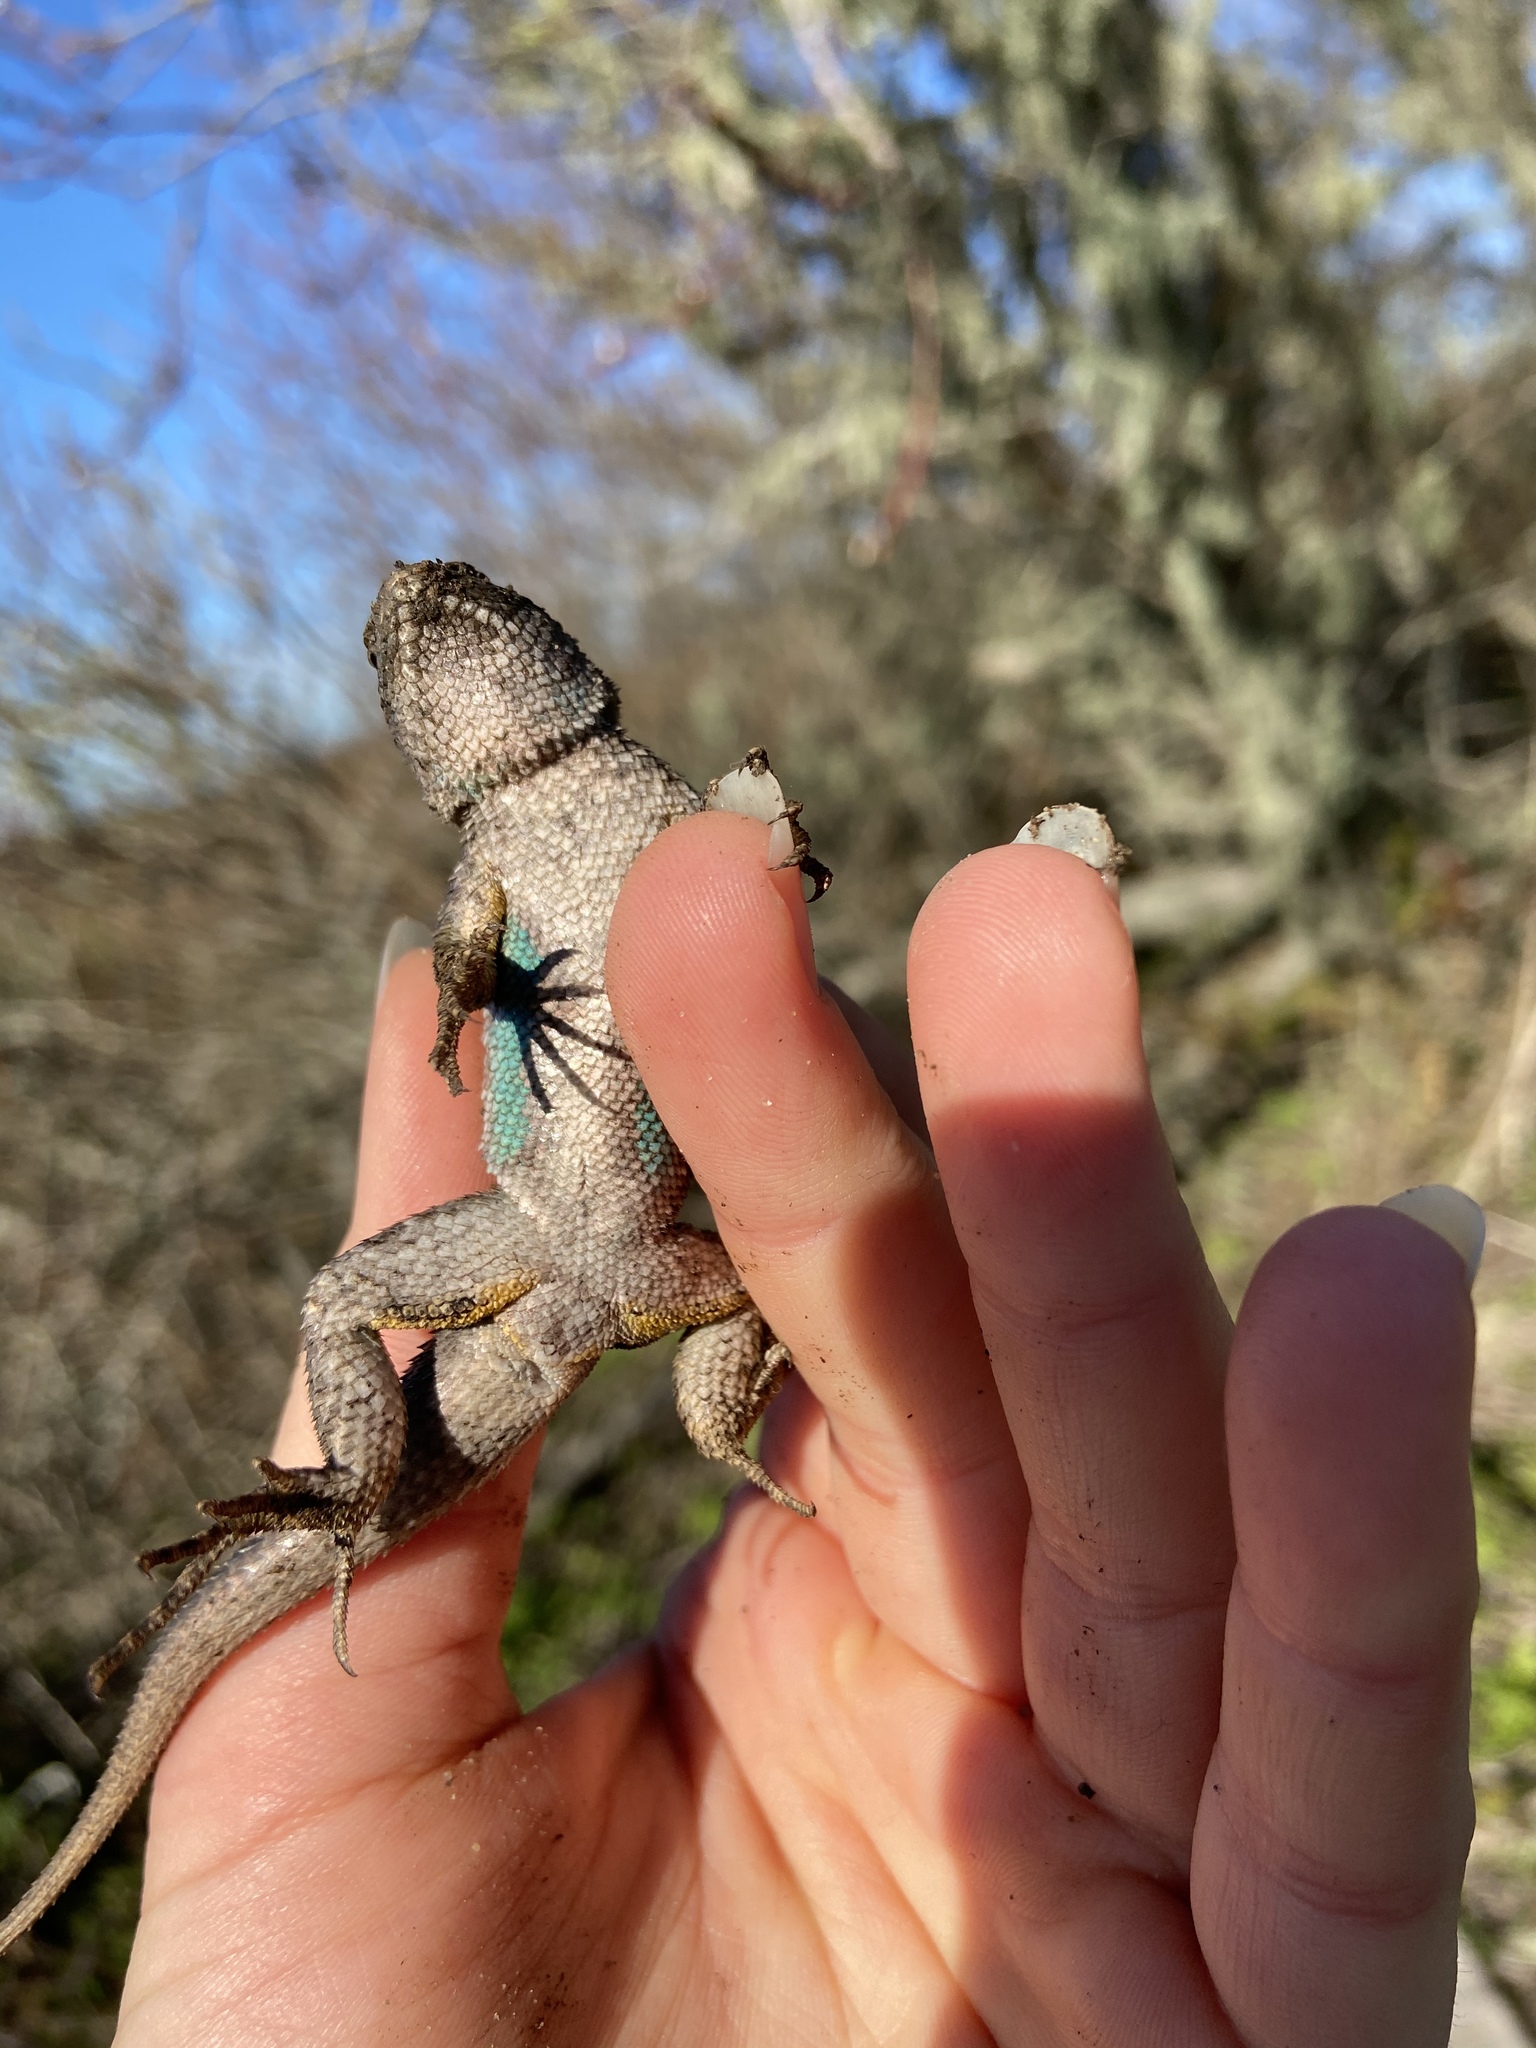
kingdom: Animalia
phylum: Chordata
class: Squamata
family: Phrynosomatidae
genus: Sceloporus
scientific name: Sceloporus occidentalis
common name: Western fence lizard
